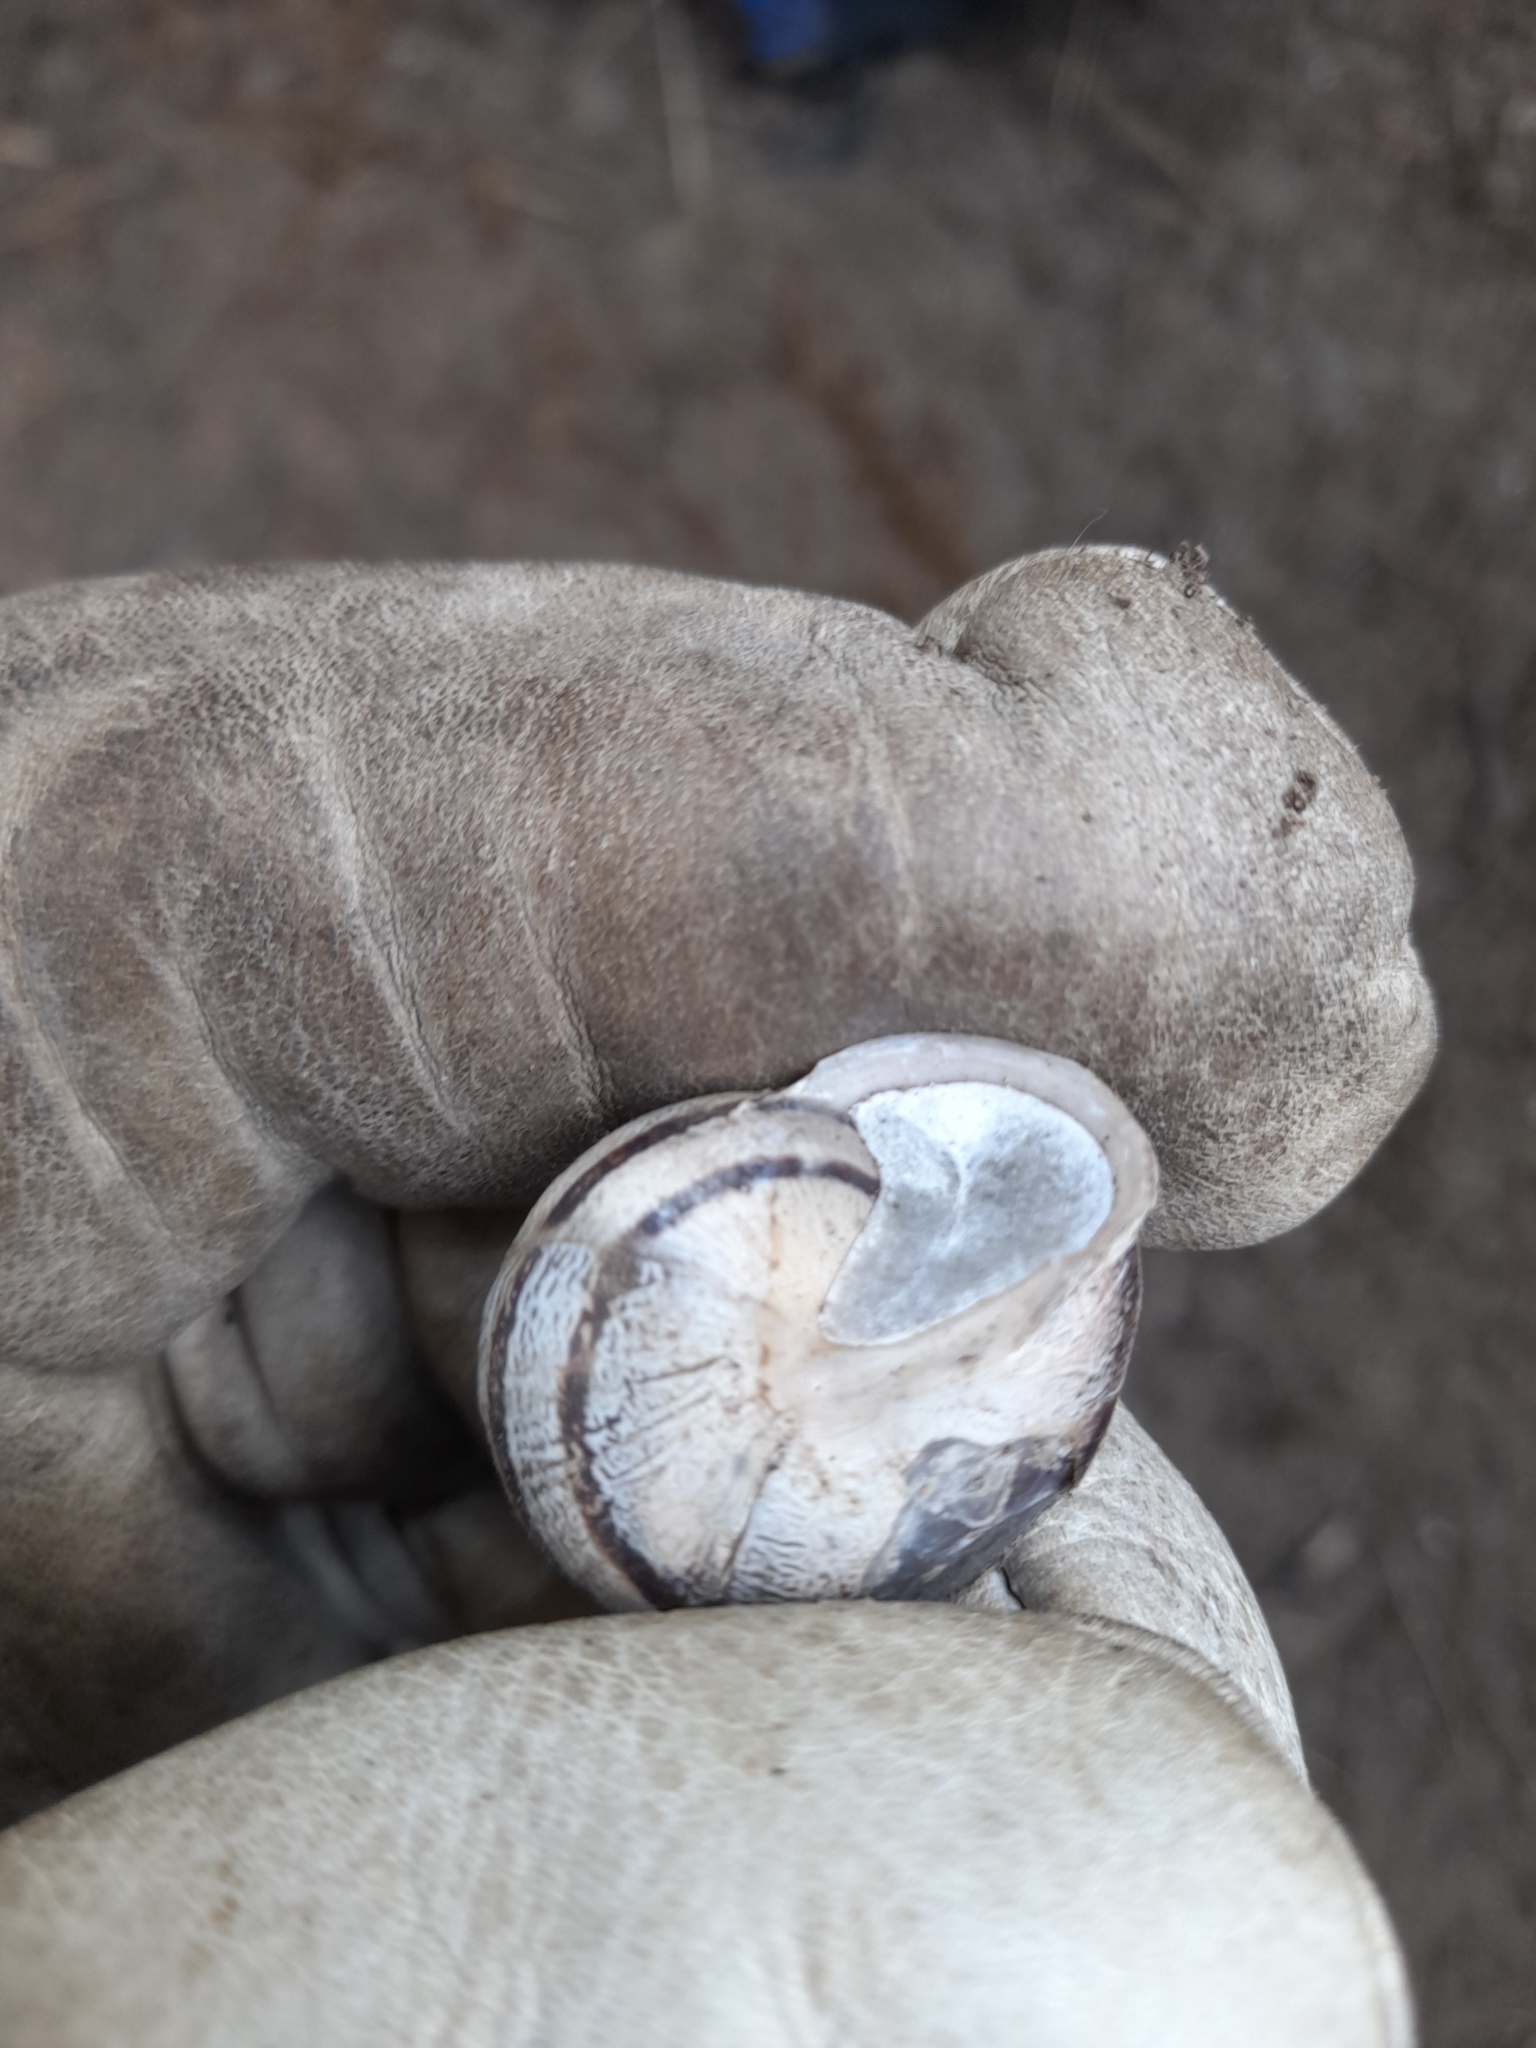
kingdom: Animalia
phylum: Mollusca
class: Gastropoda
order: Stylommatophora
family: Helicidae
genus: Eobania
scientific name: Eobania vermiculata
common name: Chocolateband snail
